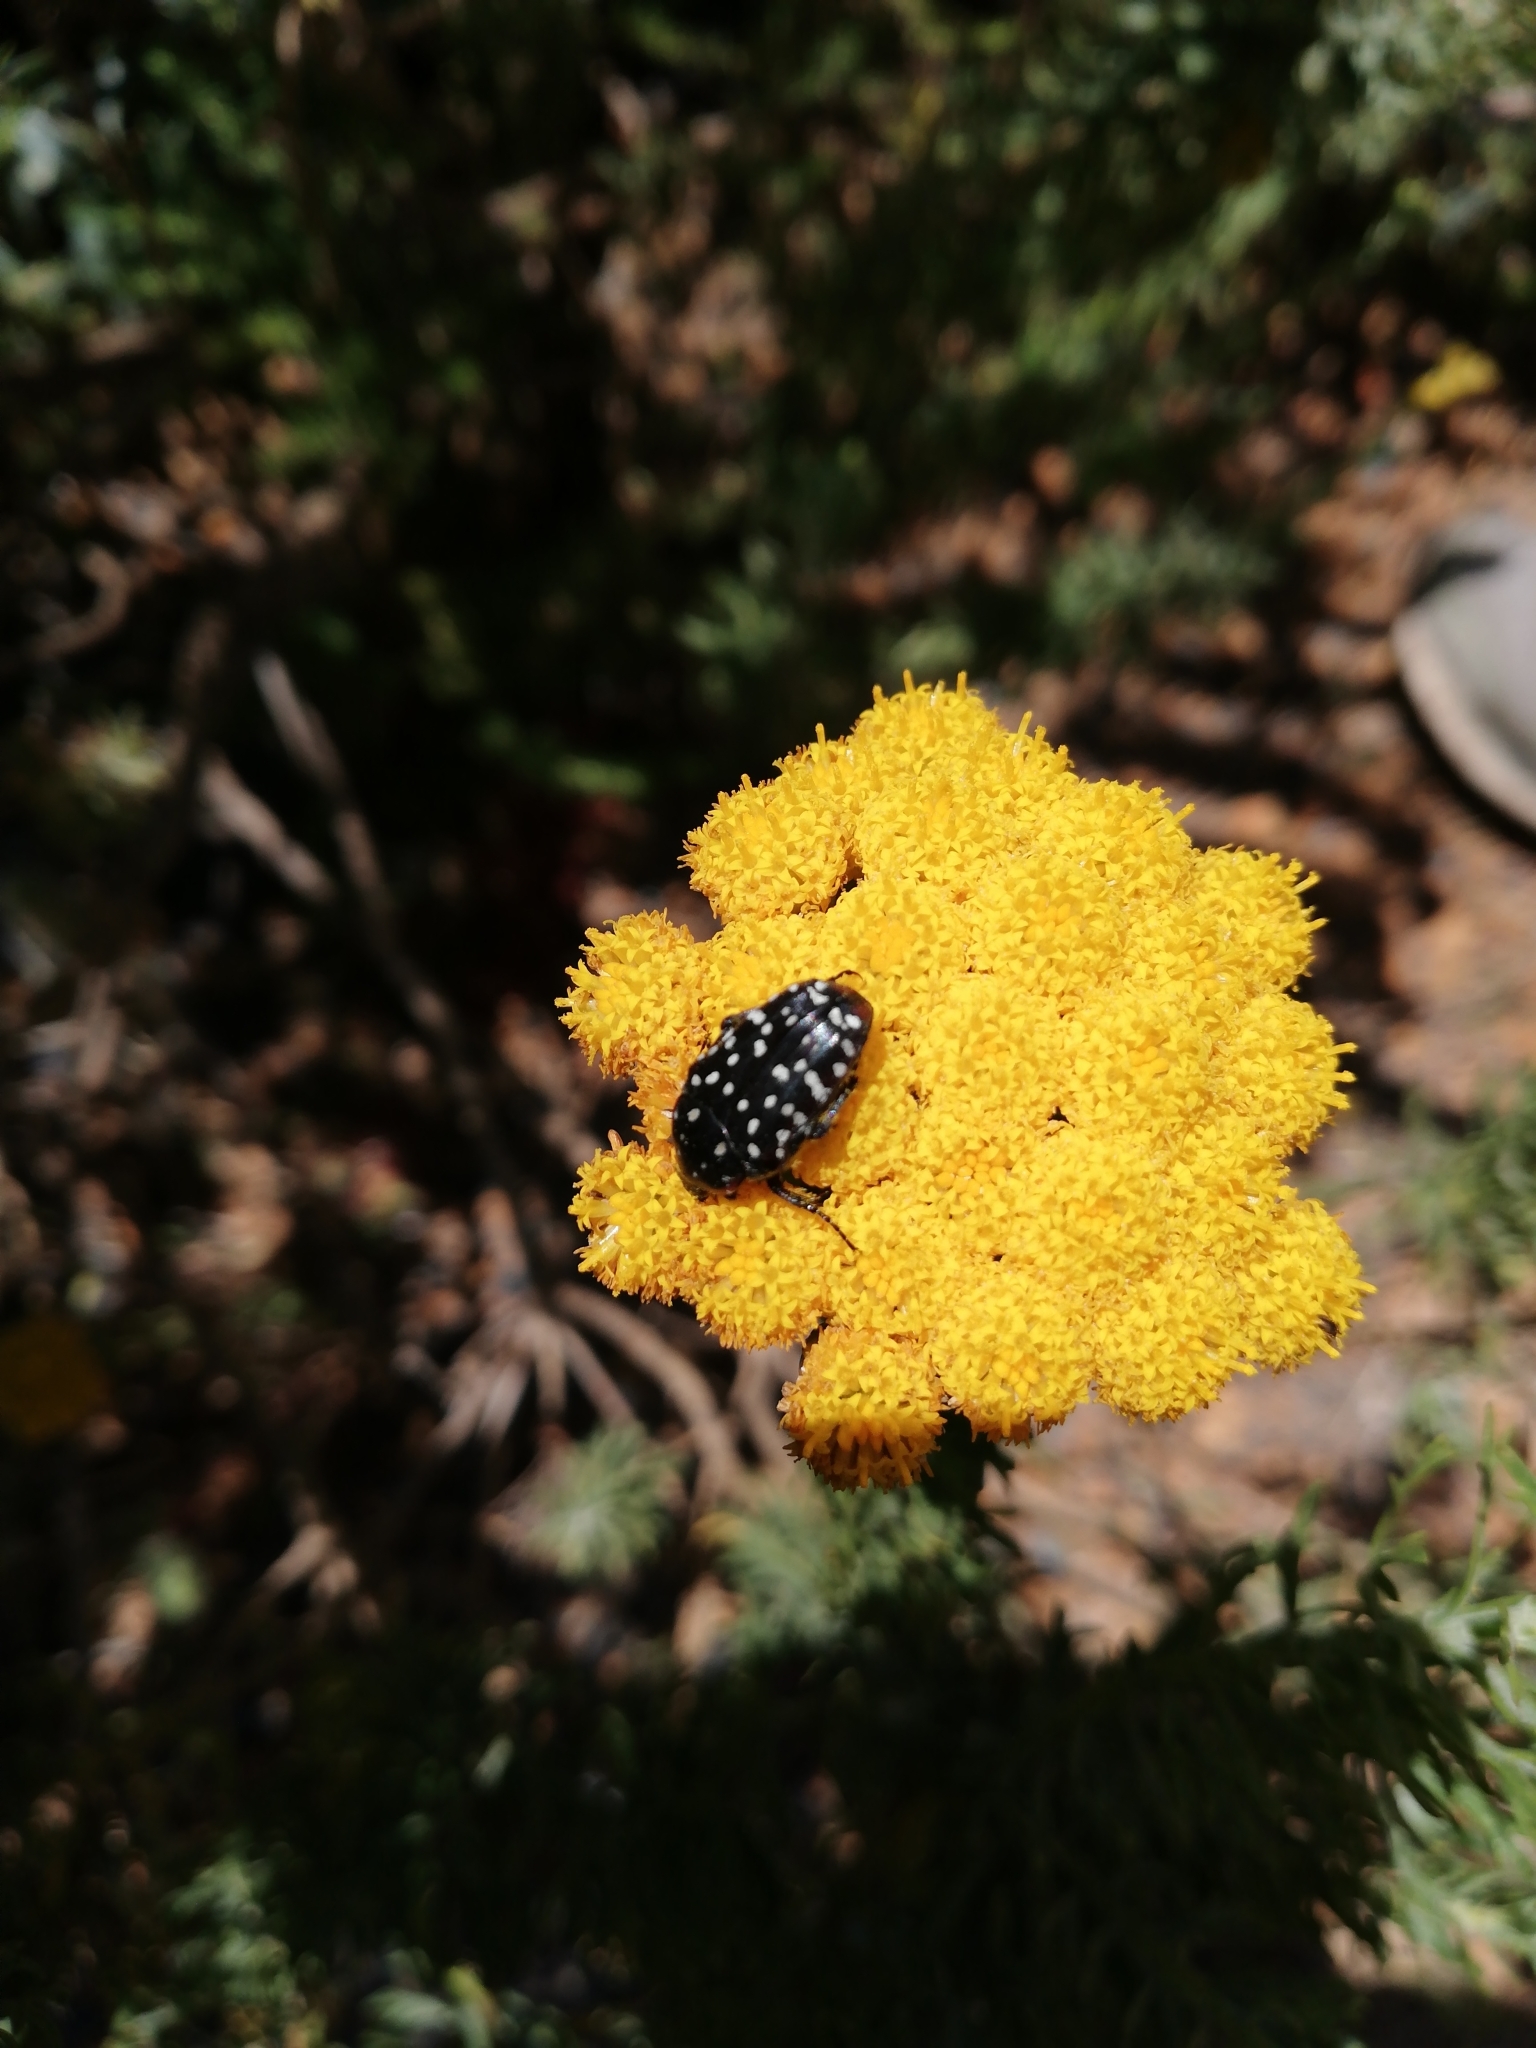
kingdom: Animalia
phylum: Arthropoda
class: Insecta
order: Coleoptera
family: Scarabaeidae
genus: Oxythyrea
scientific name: Oxythyrea
